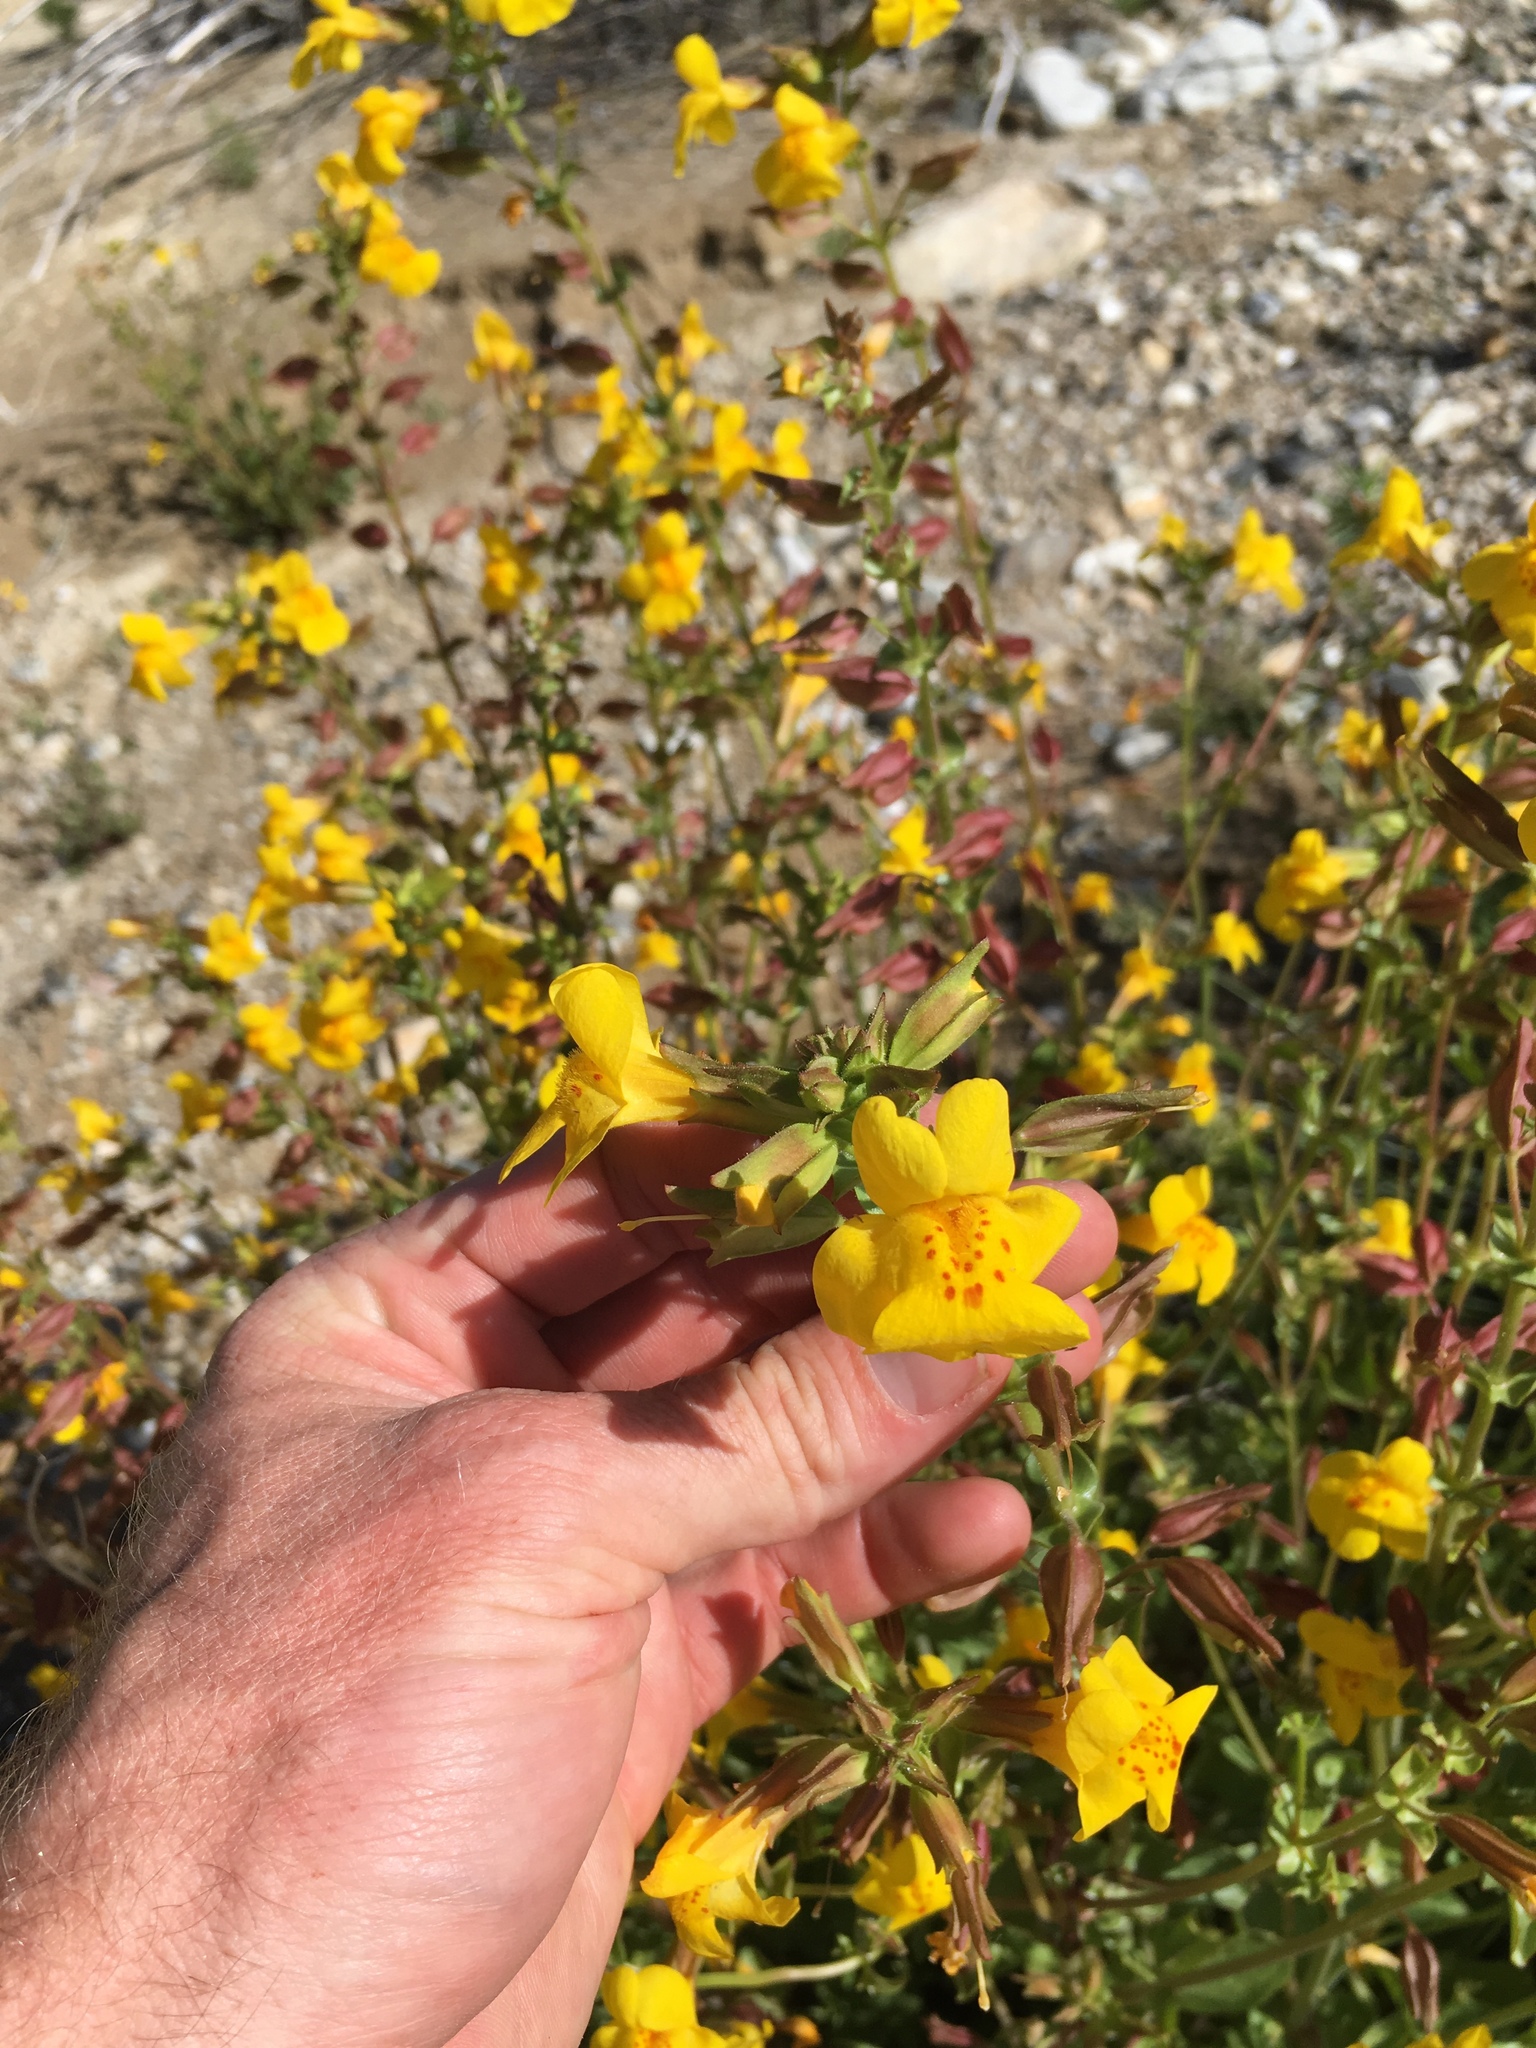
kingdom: Plantae
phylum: Tracheophyta
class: Magnoliopsida
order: Lamiales
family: Phrymaceae
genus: Erythranthe
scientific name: Erythranthe guttata
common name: Monkeyflower
